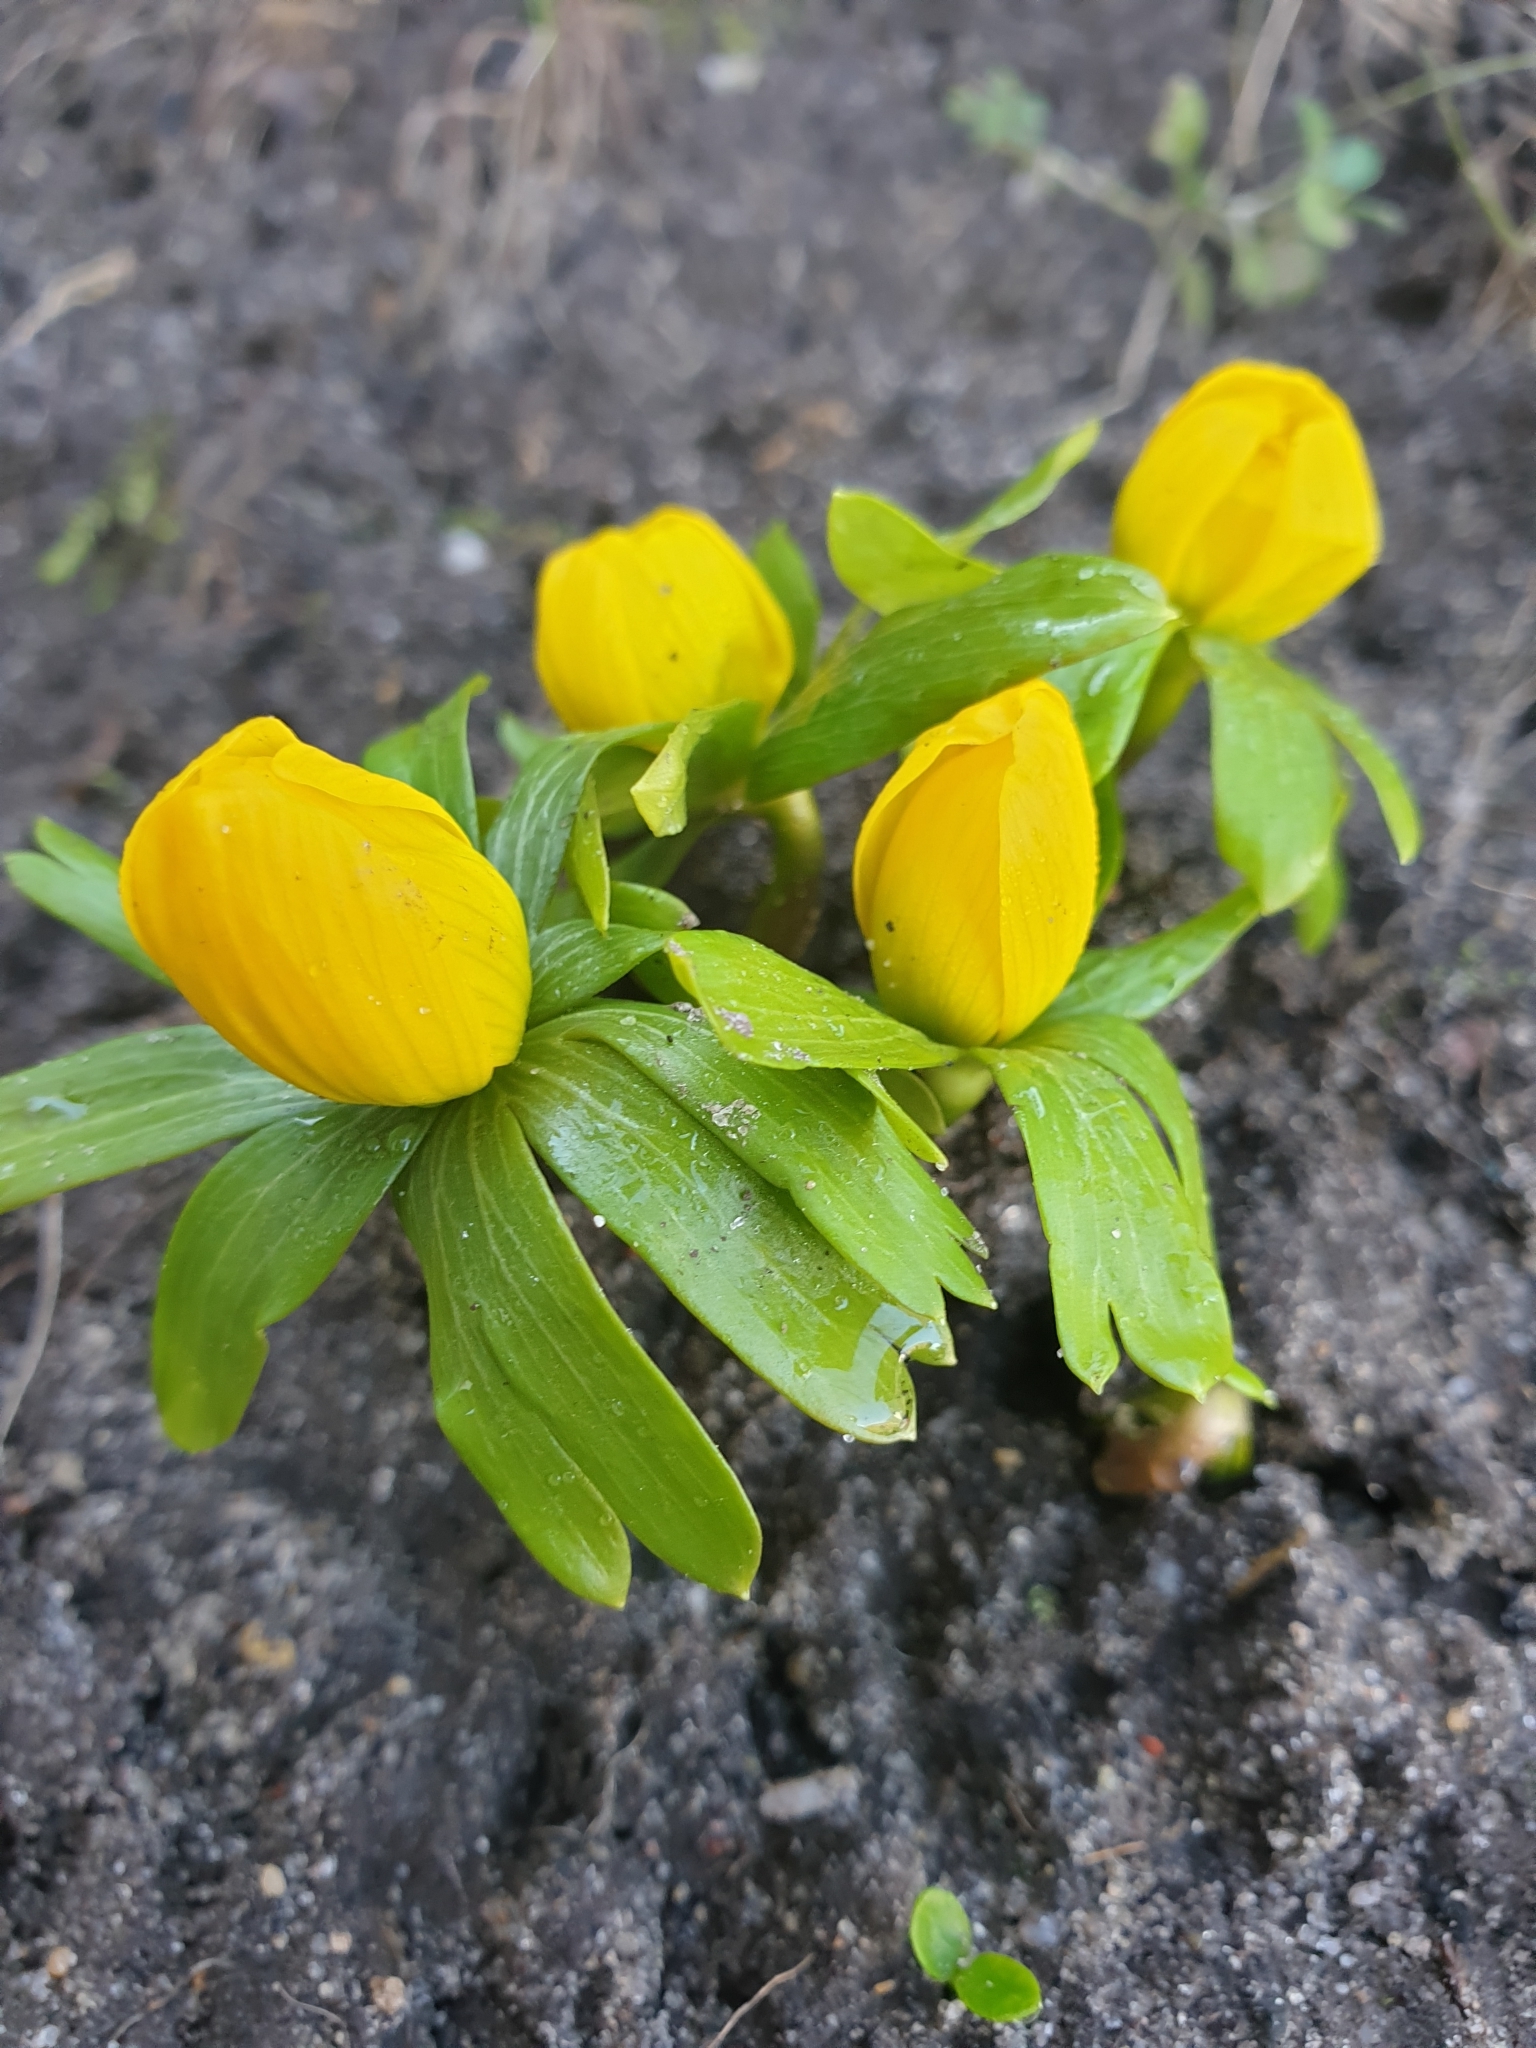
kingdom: Plantae
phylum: Tracheophyta
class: Magnoliopsida
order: Ranunculales
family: Ranunculaceae
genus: Eranthis
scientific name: Eranthis hyemalis
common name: Winter aconite
